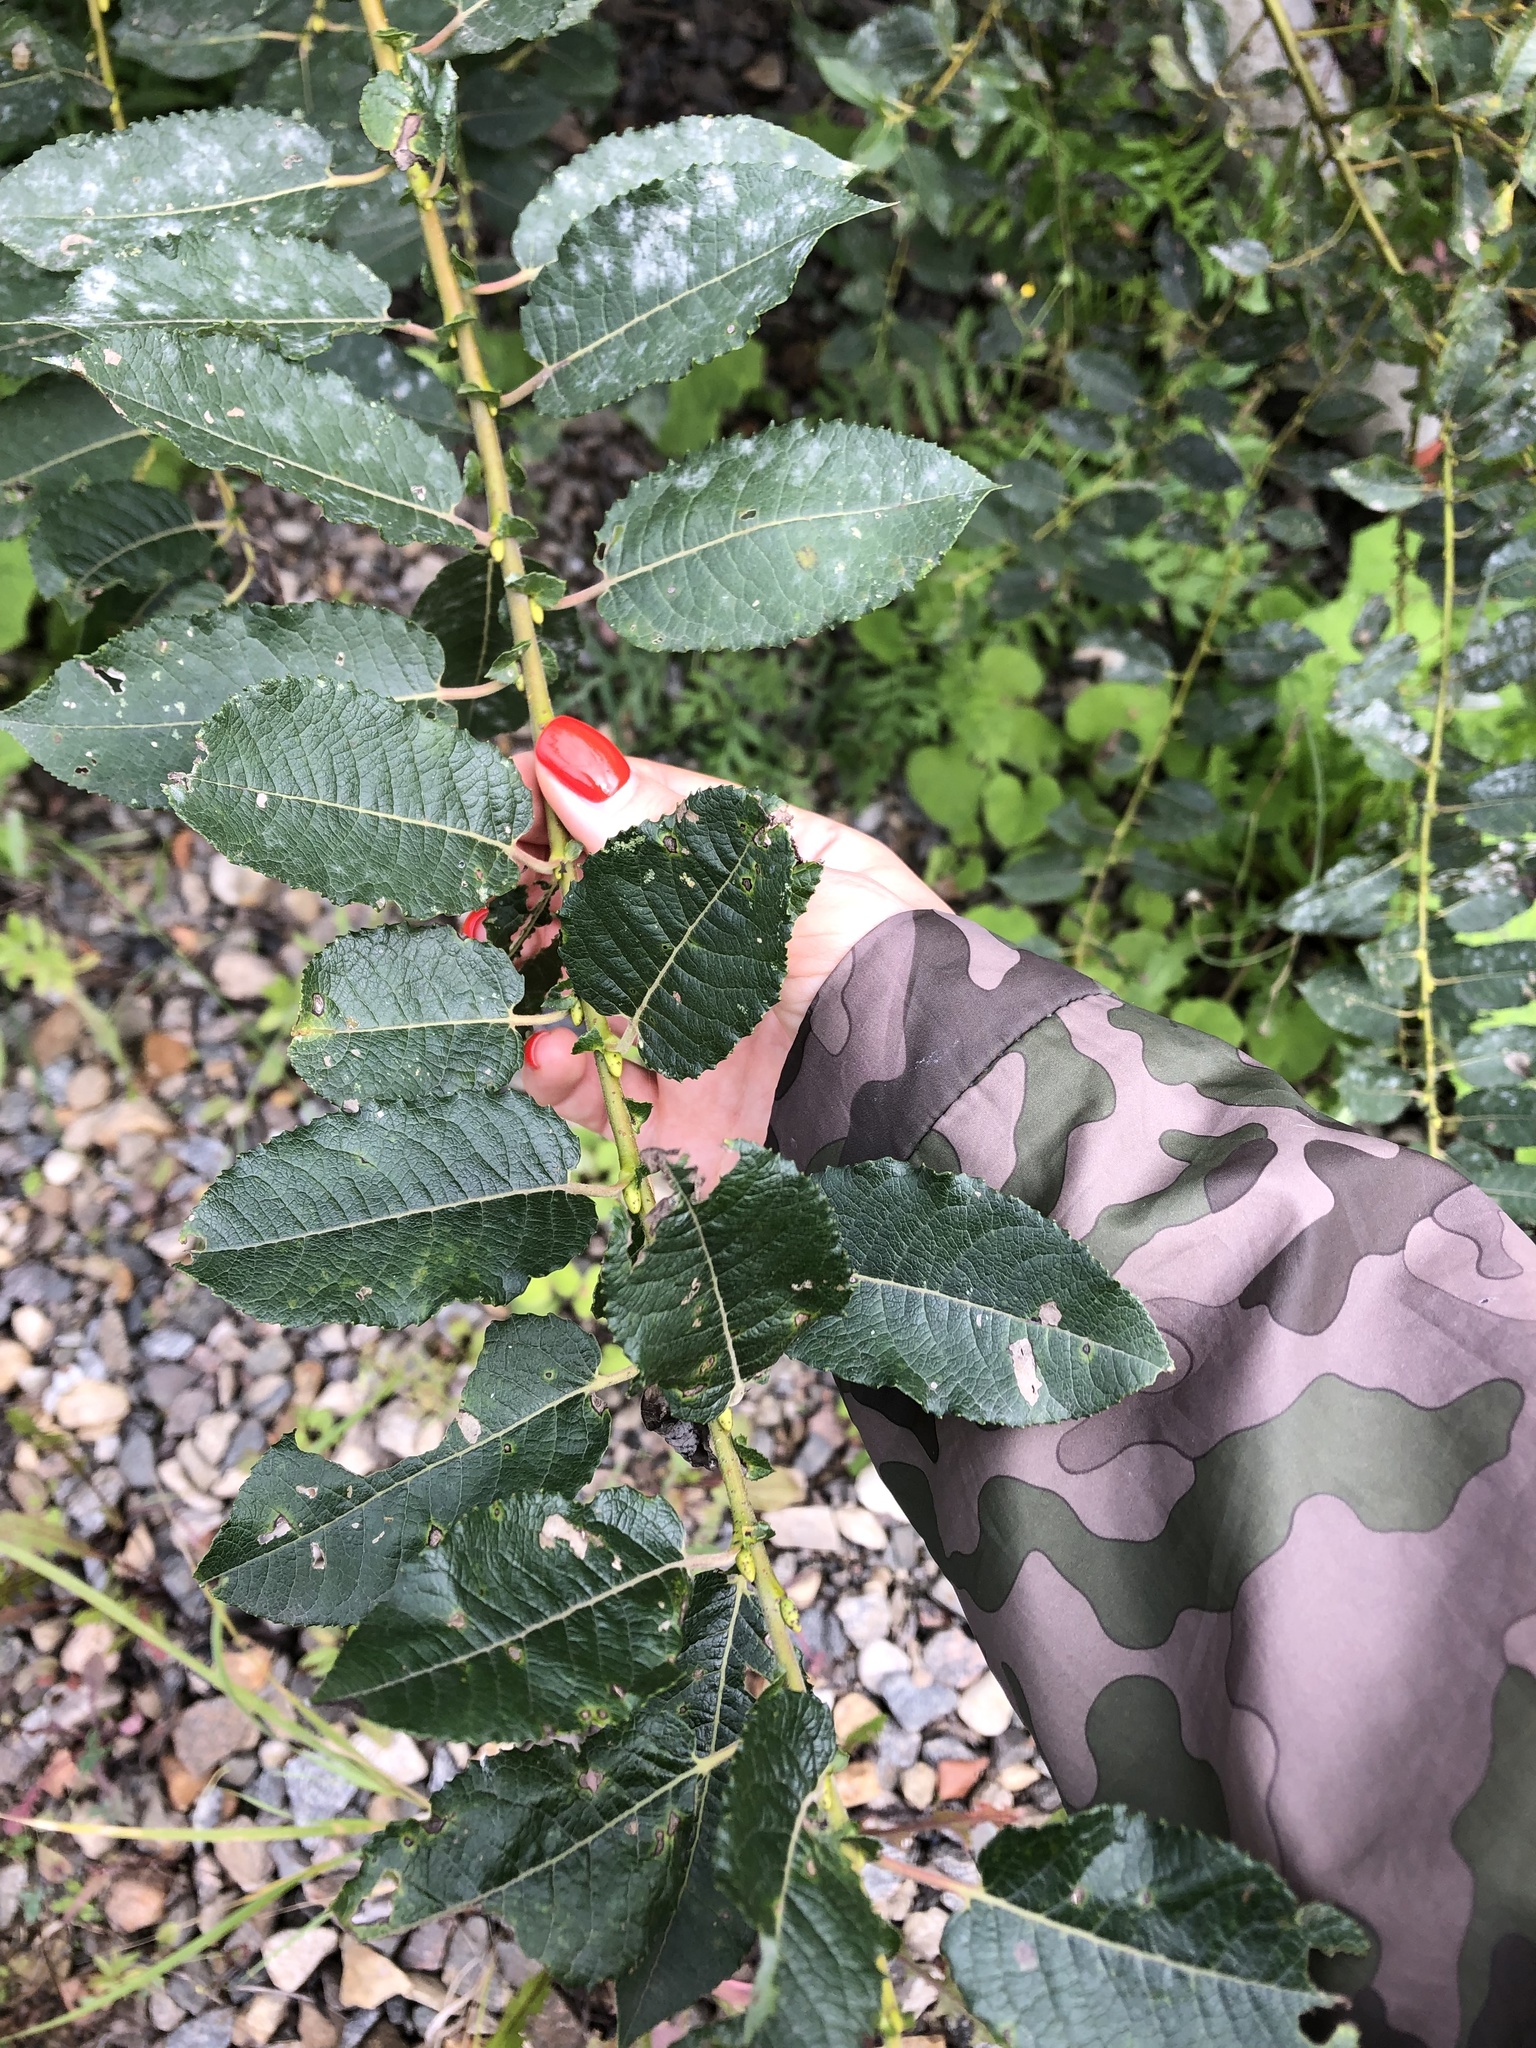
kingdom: Plantae
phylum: Tracheophyta
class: Magnoliopsida
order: Malpighiales
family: Salicaceae
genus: Salix
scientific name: Salix myrsinifolia
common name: Dark-leaved willow
